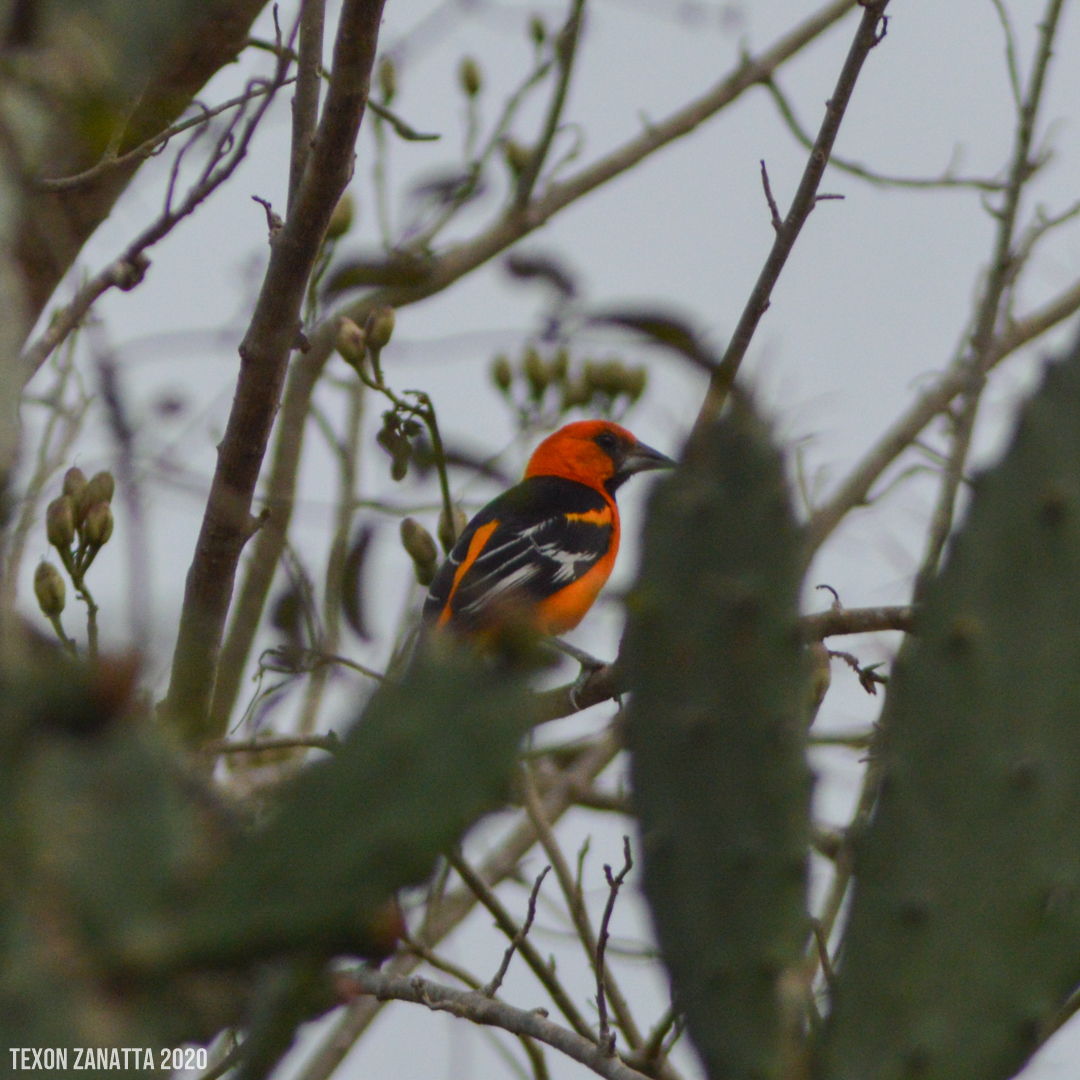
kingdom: Animalia
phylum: Chordata
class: Aves
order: Passeriformes
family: Icteridae
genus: Icterus
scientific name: Icterus gularis
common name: Altamira oriole
